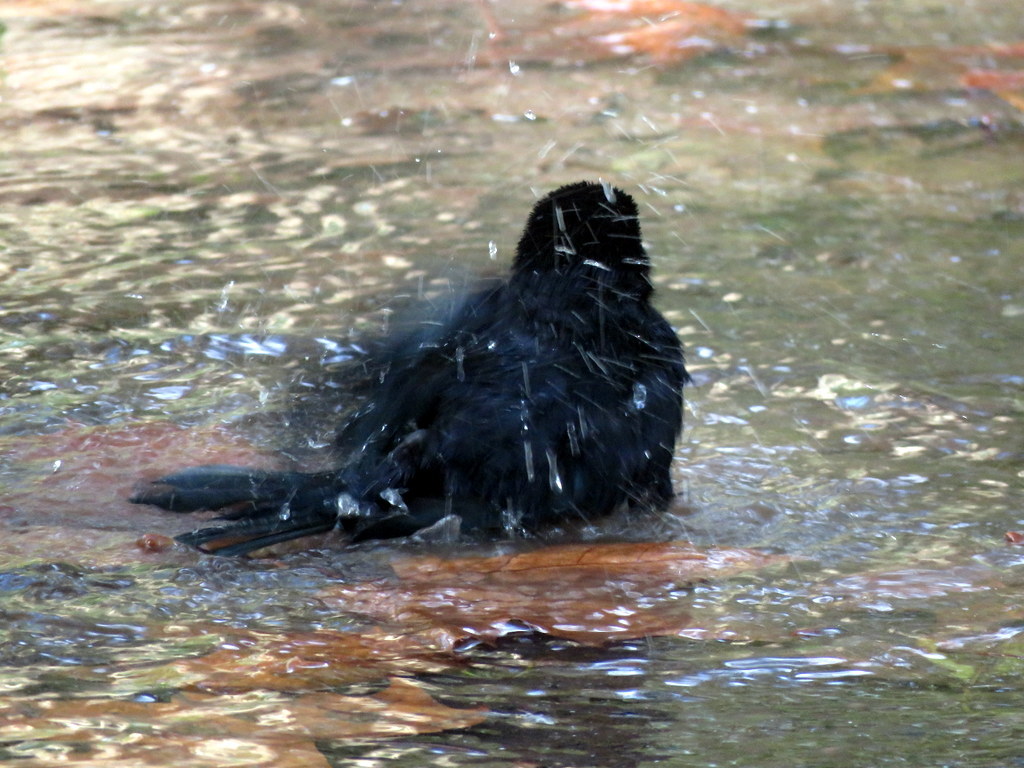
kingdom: Animalia
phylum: Chordata
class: Aves
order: Passeriformes
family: Icteridae
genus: Molothrus
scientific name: Molothrus rufoaxillaris
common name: Screaming cowbird
